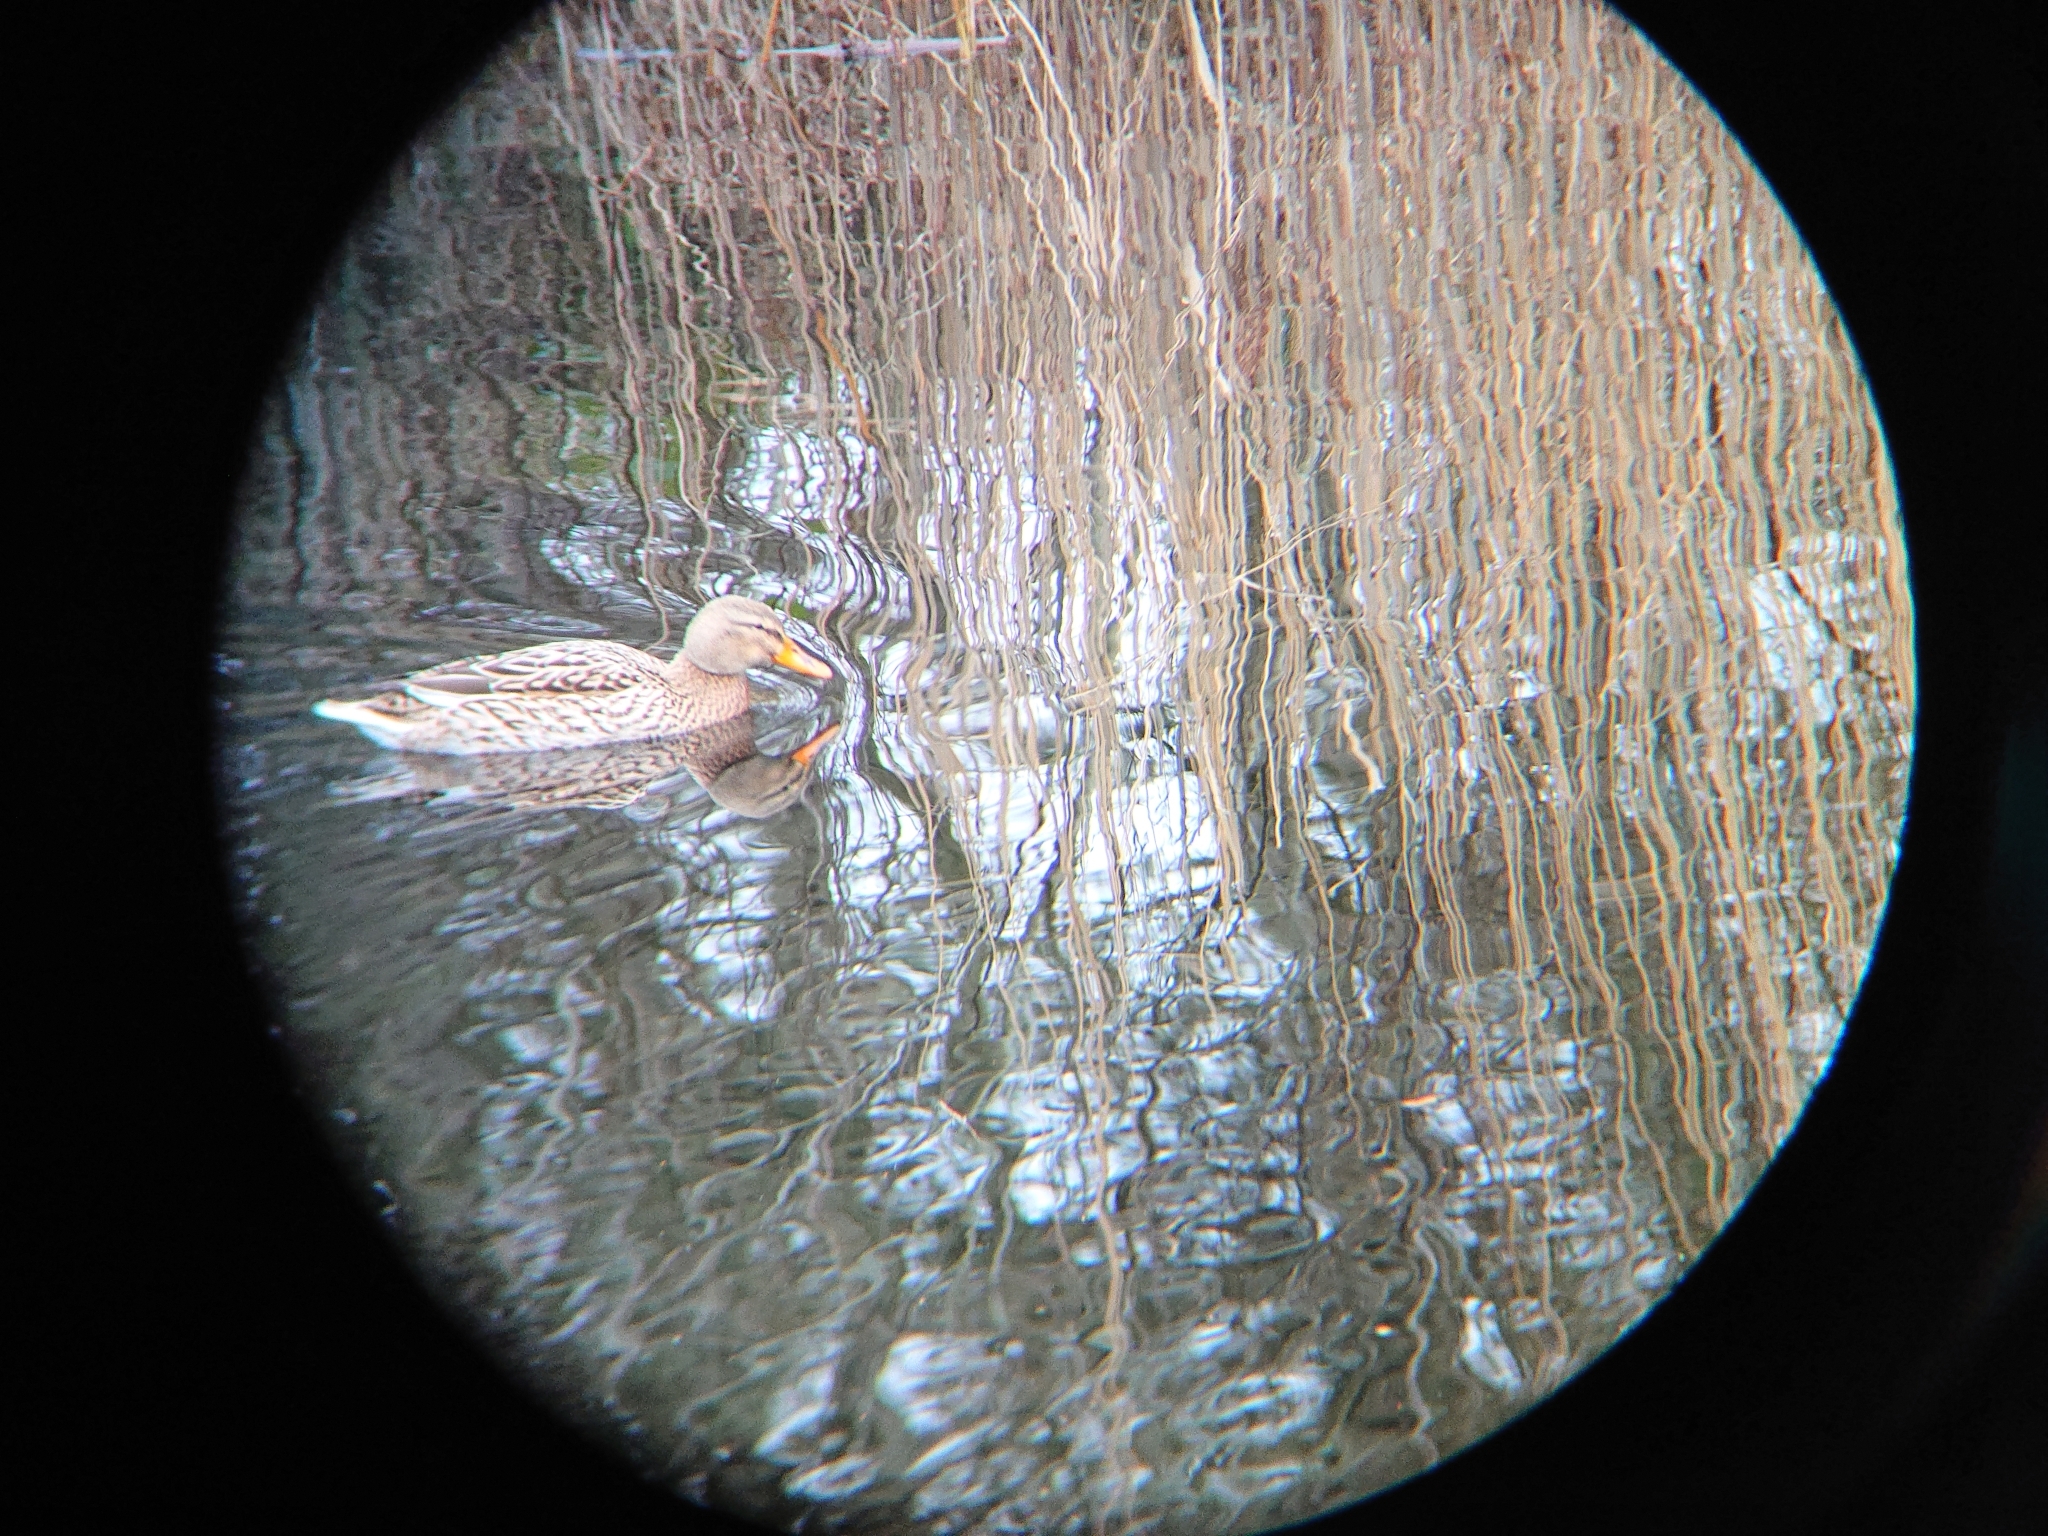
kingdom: Animalia
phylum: Chordata
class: Aves
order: Anseriformes
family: Anatidae
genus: Anas
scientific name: Anas platyrhynchos
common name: Mallard
